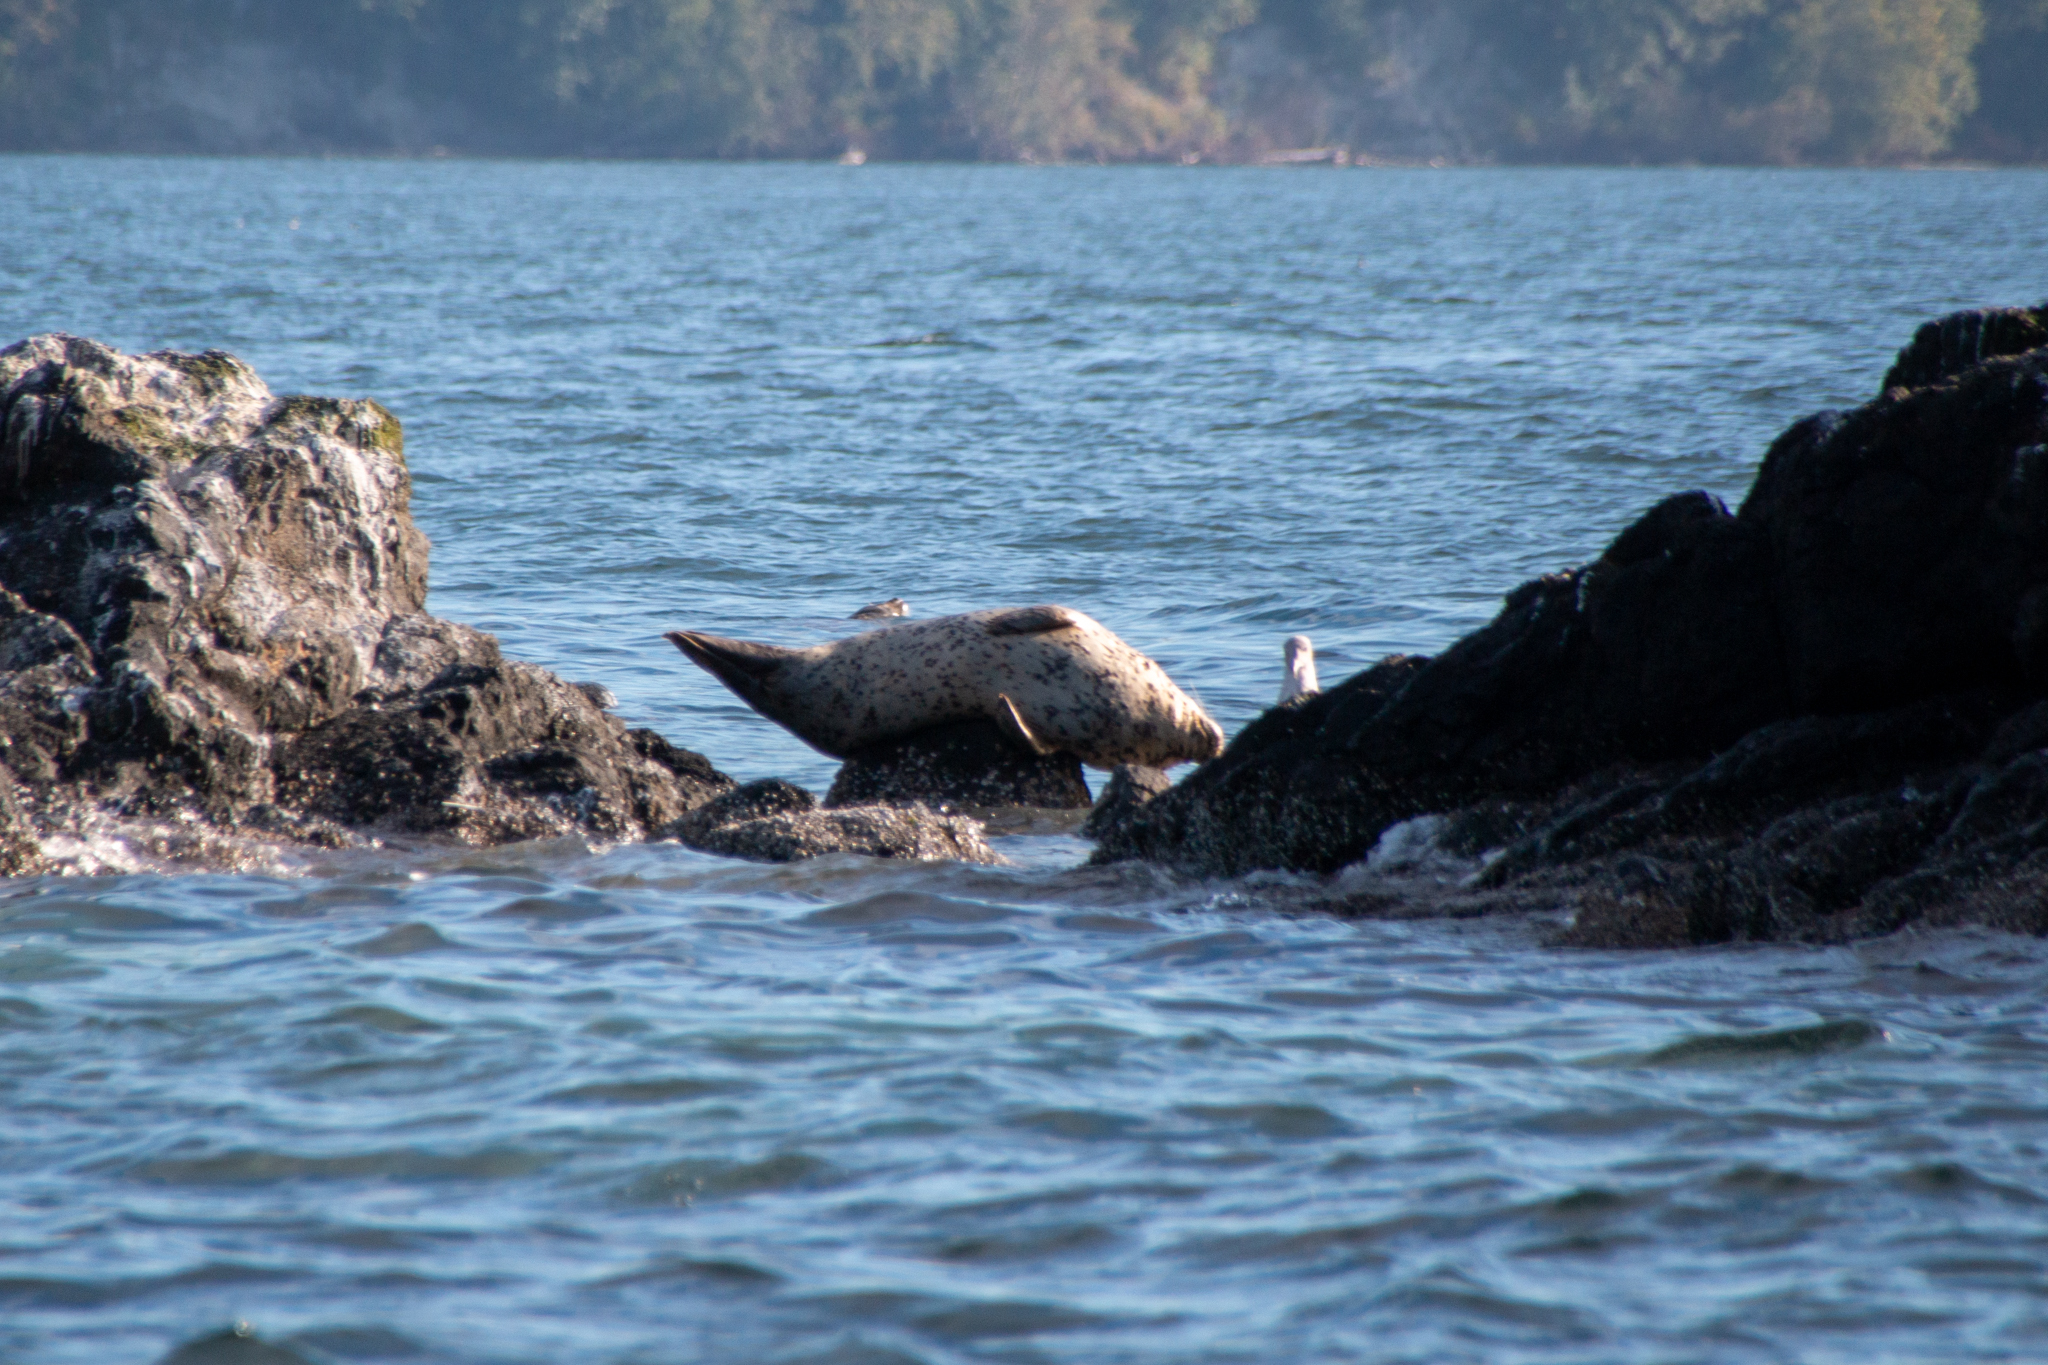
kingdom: Animalia
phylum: Chordata
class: Mammalia
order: Carnivora
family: Phocidae
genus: Phoca
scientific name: Phoca vitulina
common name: Harbor seal
